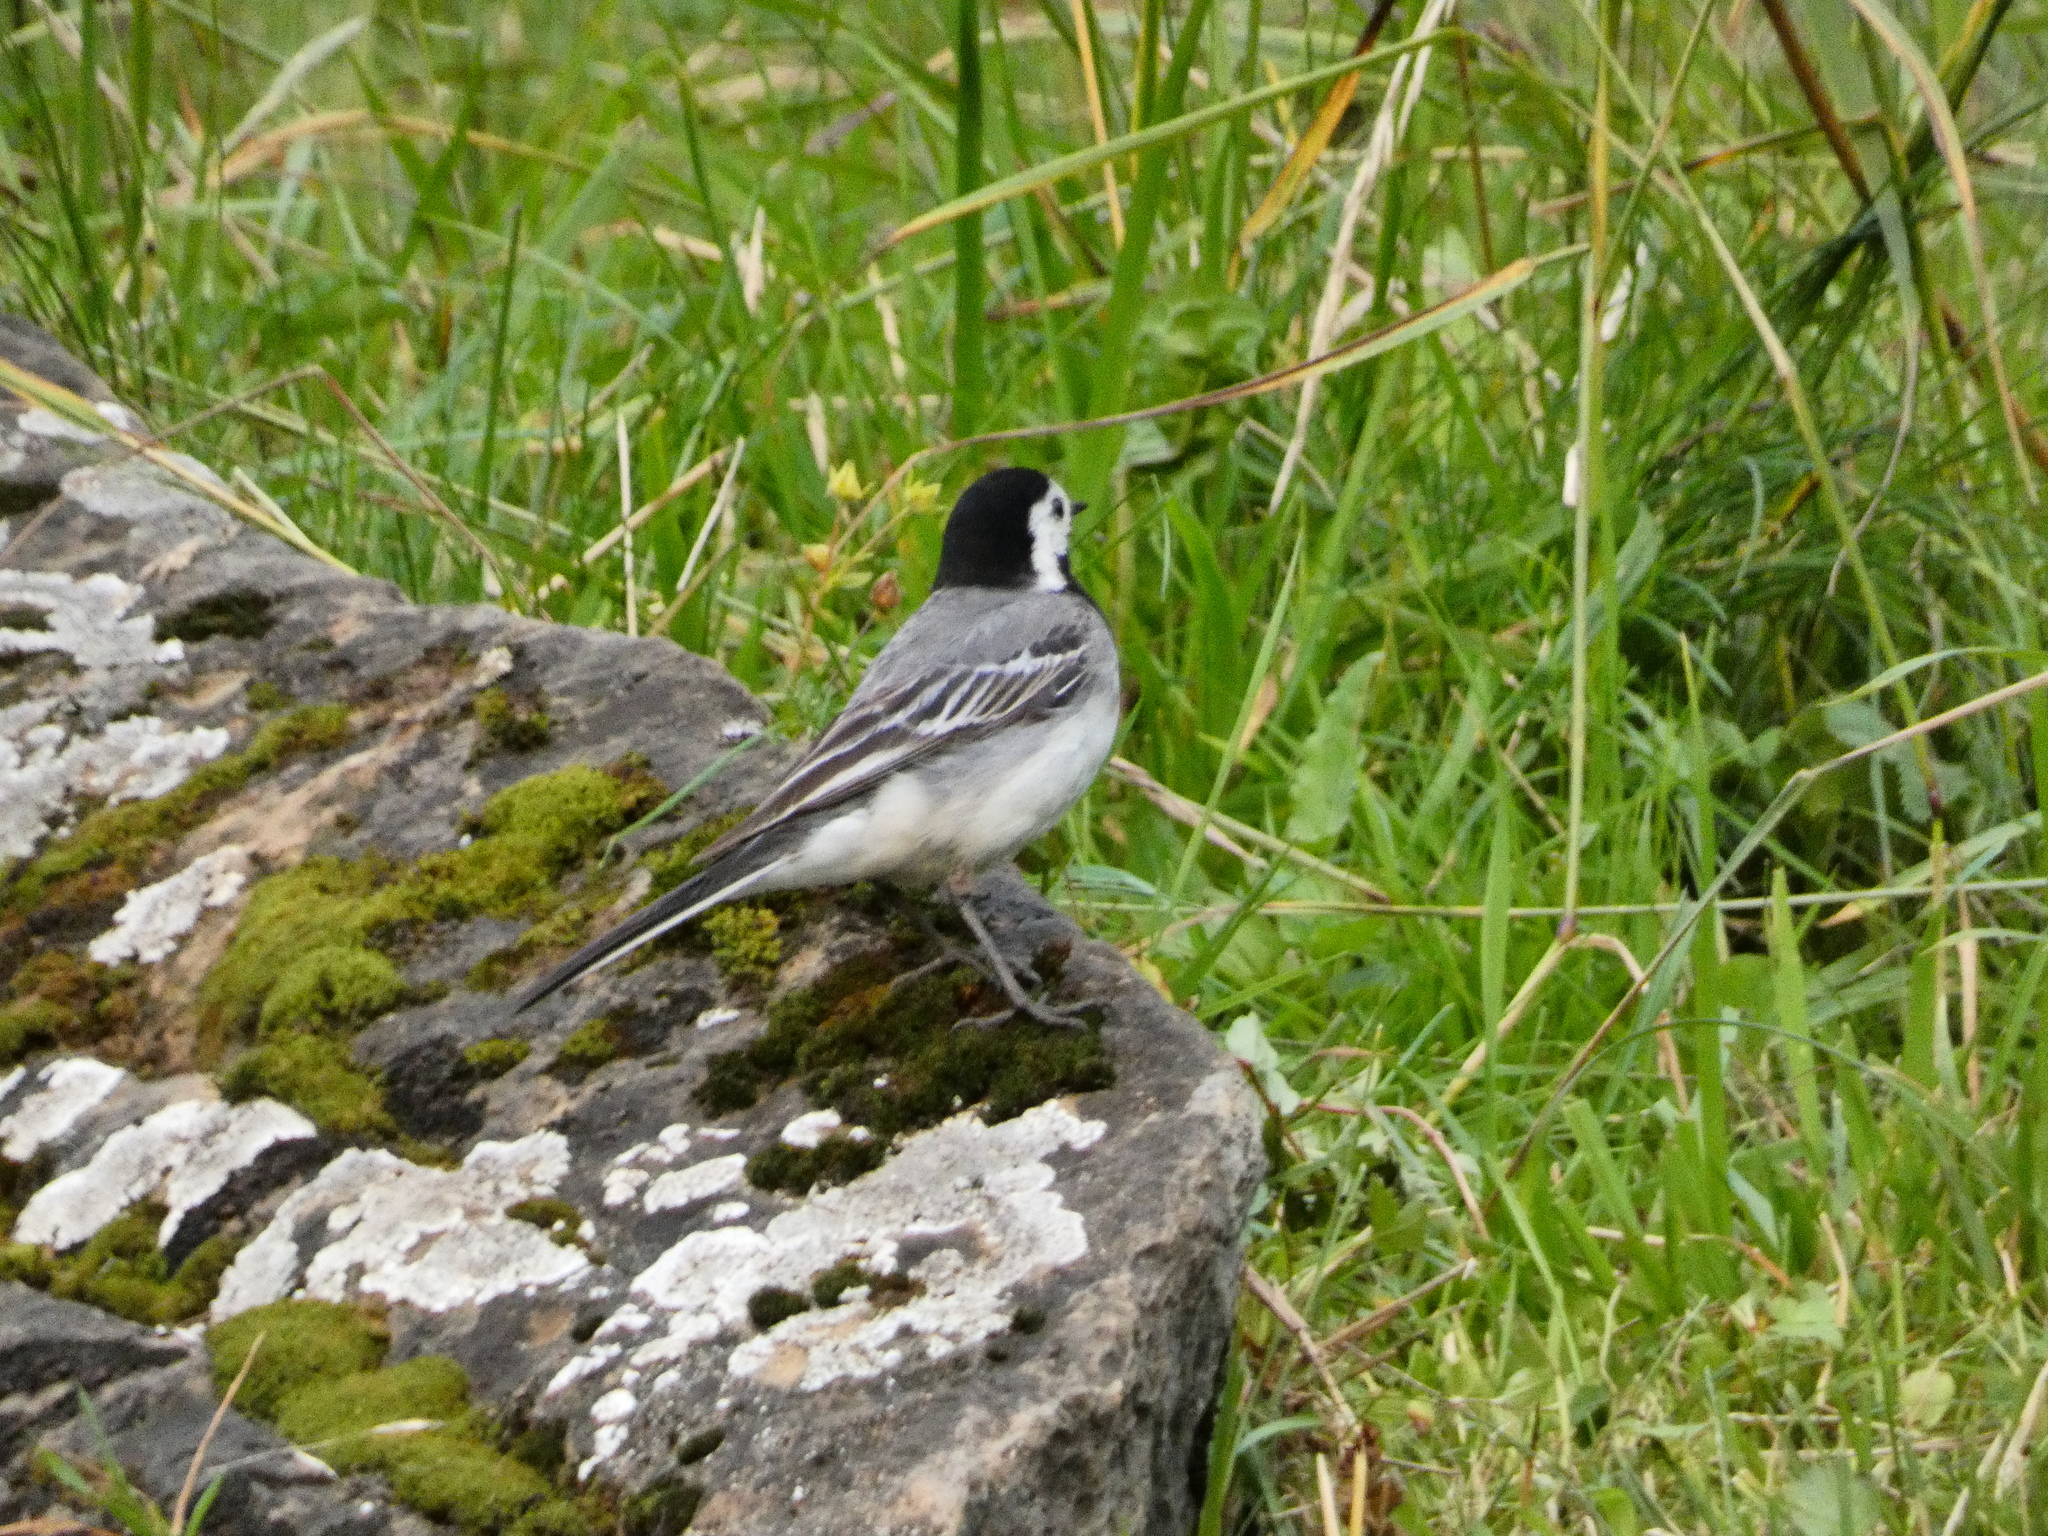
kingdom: Animalia
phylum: Chordata
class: Aves
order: Passeriformes
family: Motacillidae
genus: Motacilla
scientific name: Motacilla alba
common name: White wagtail
